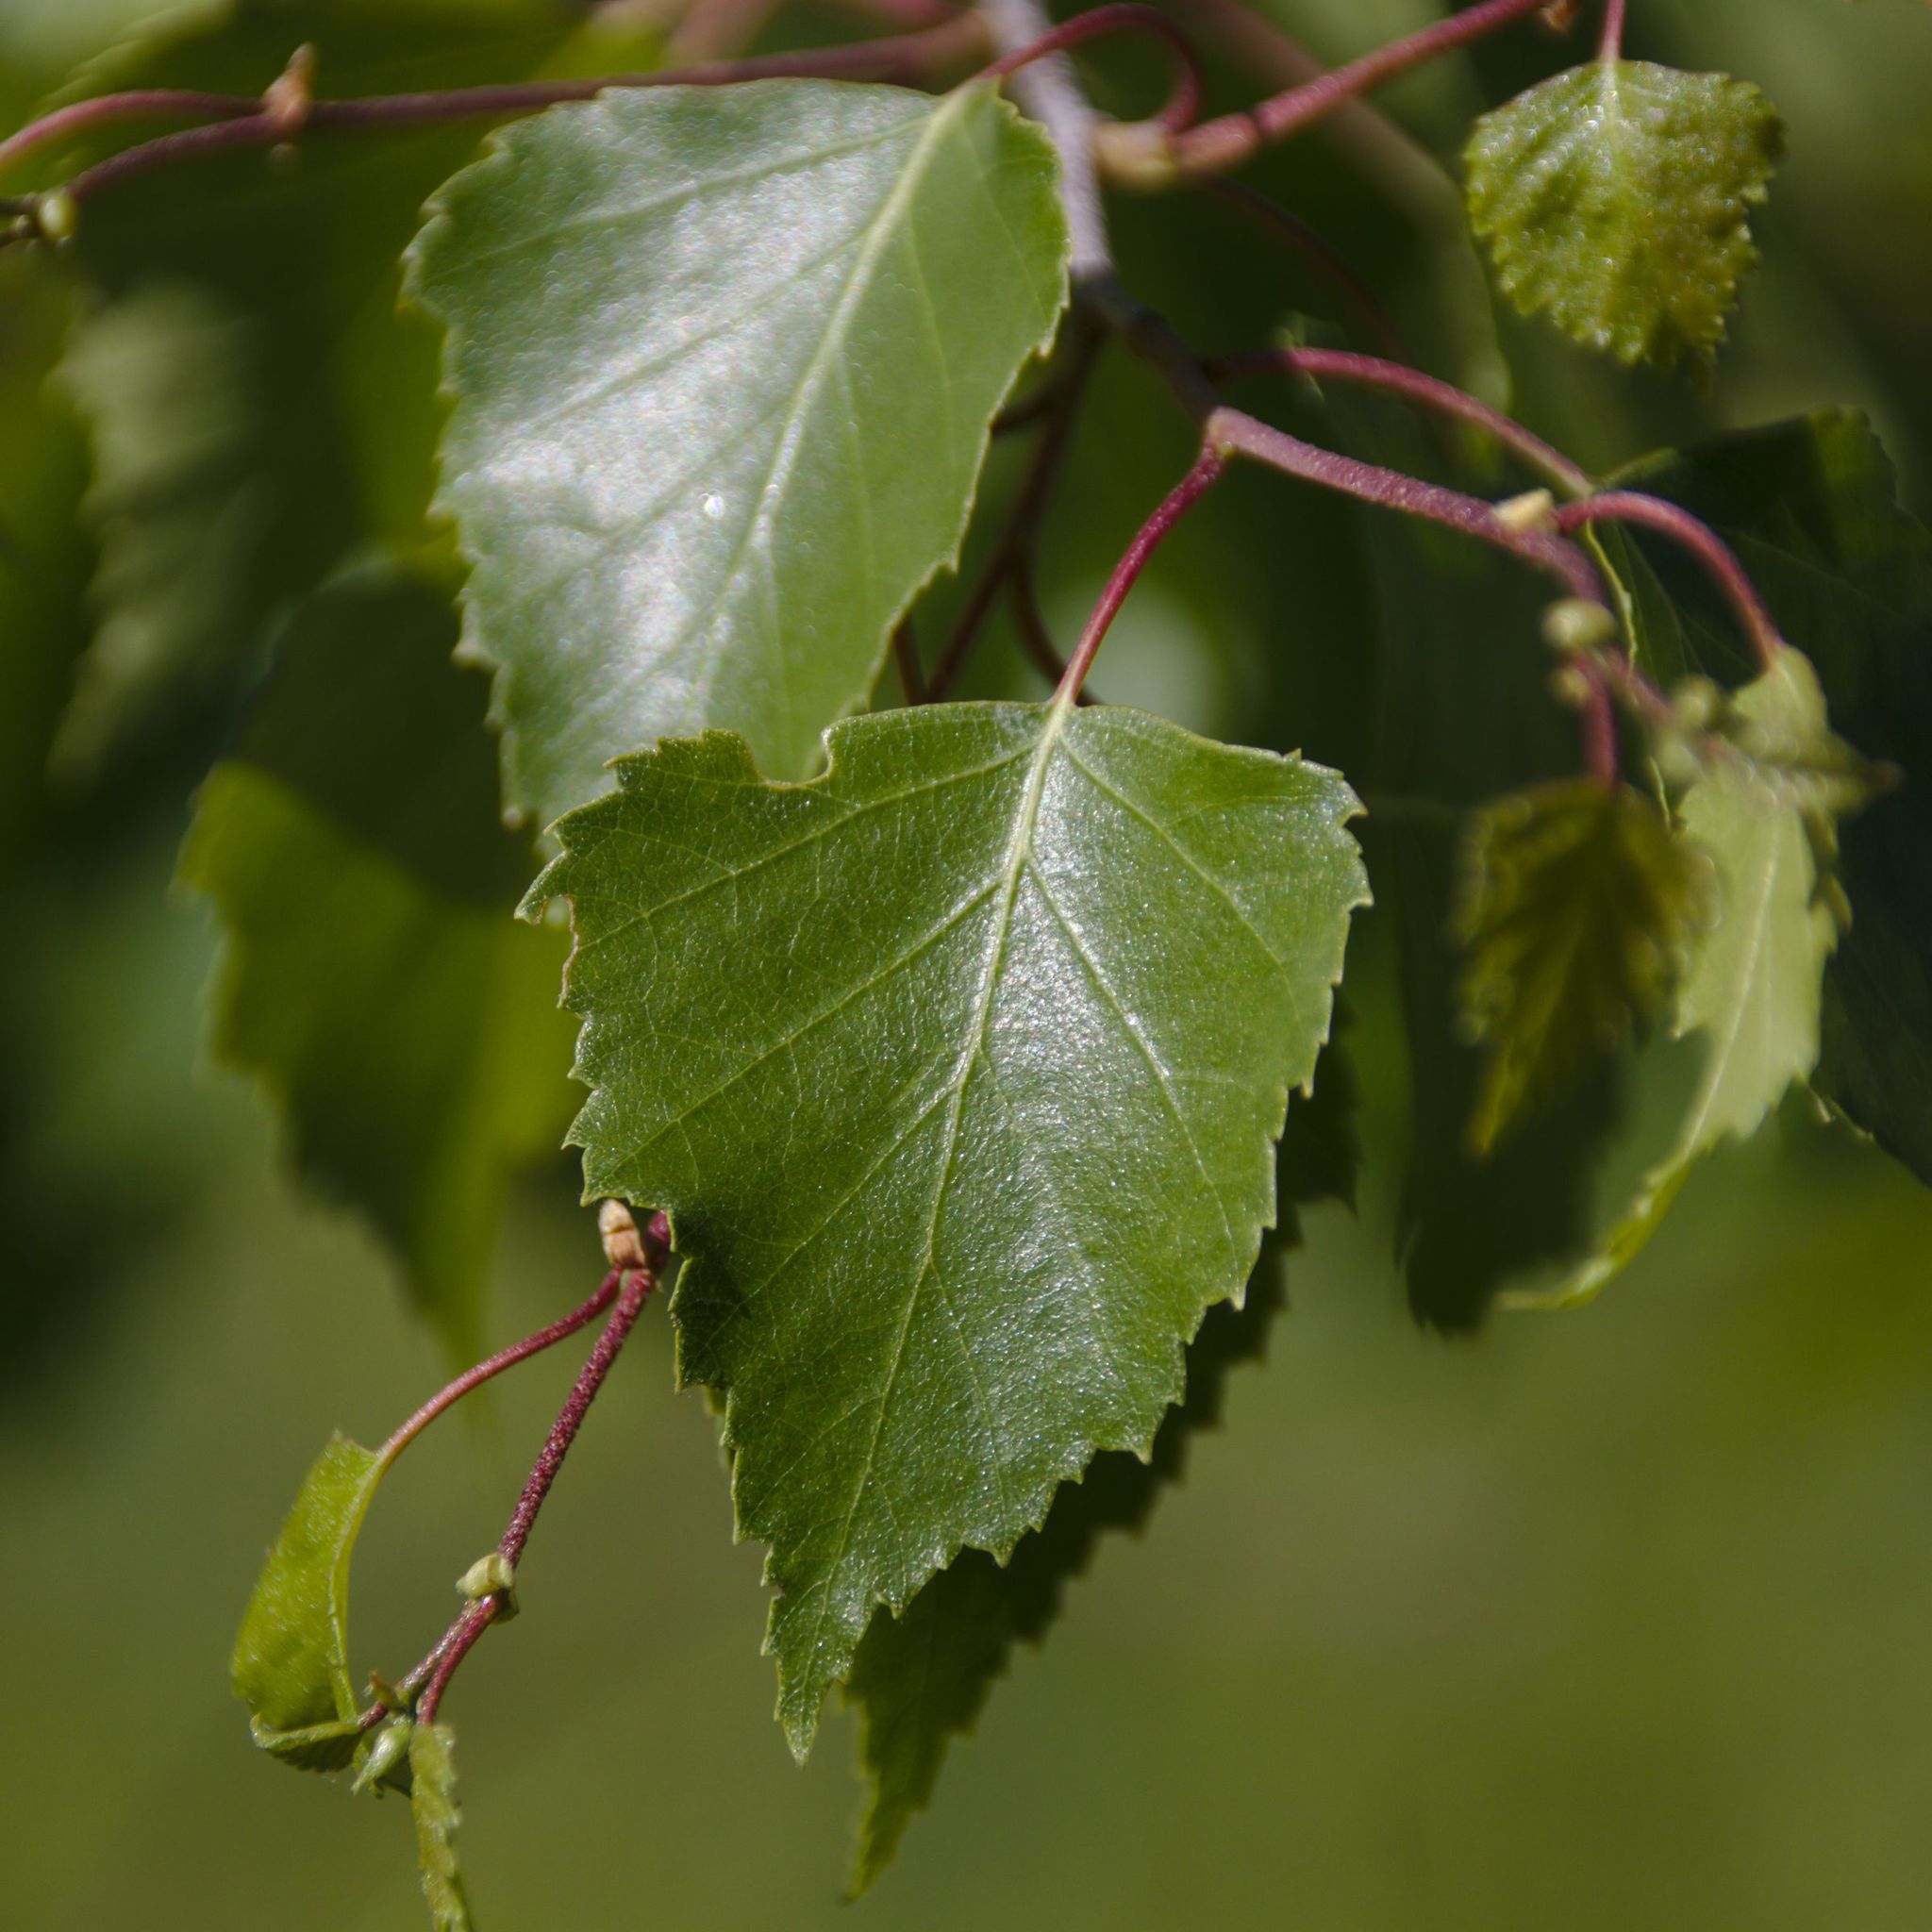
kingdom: Plantae
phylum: Tracheophyta
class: Magnoliopsida
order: Fagales
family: Betulaceae
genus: Betula
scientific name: Betula pendula
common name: Silver birch
